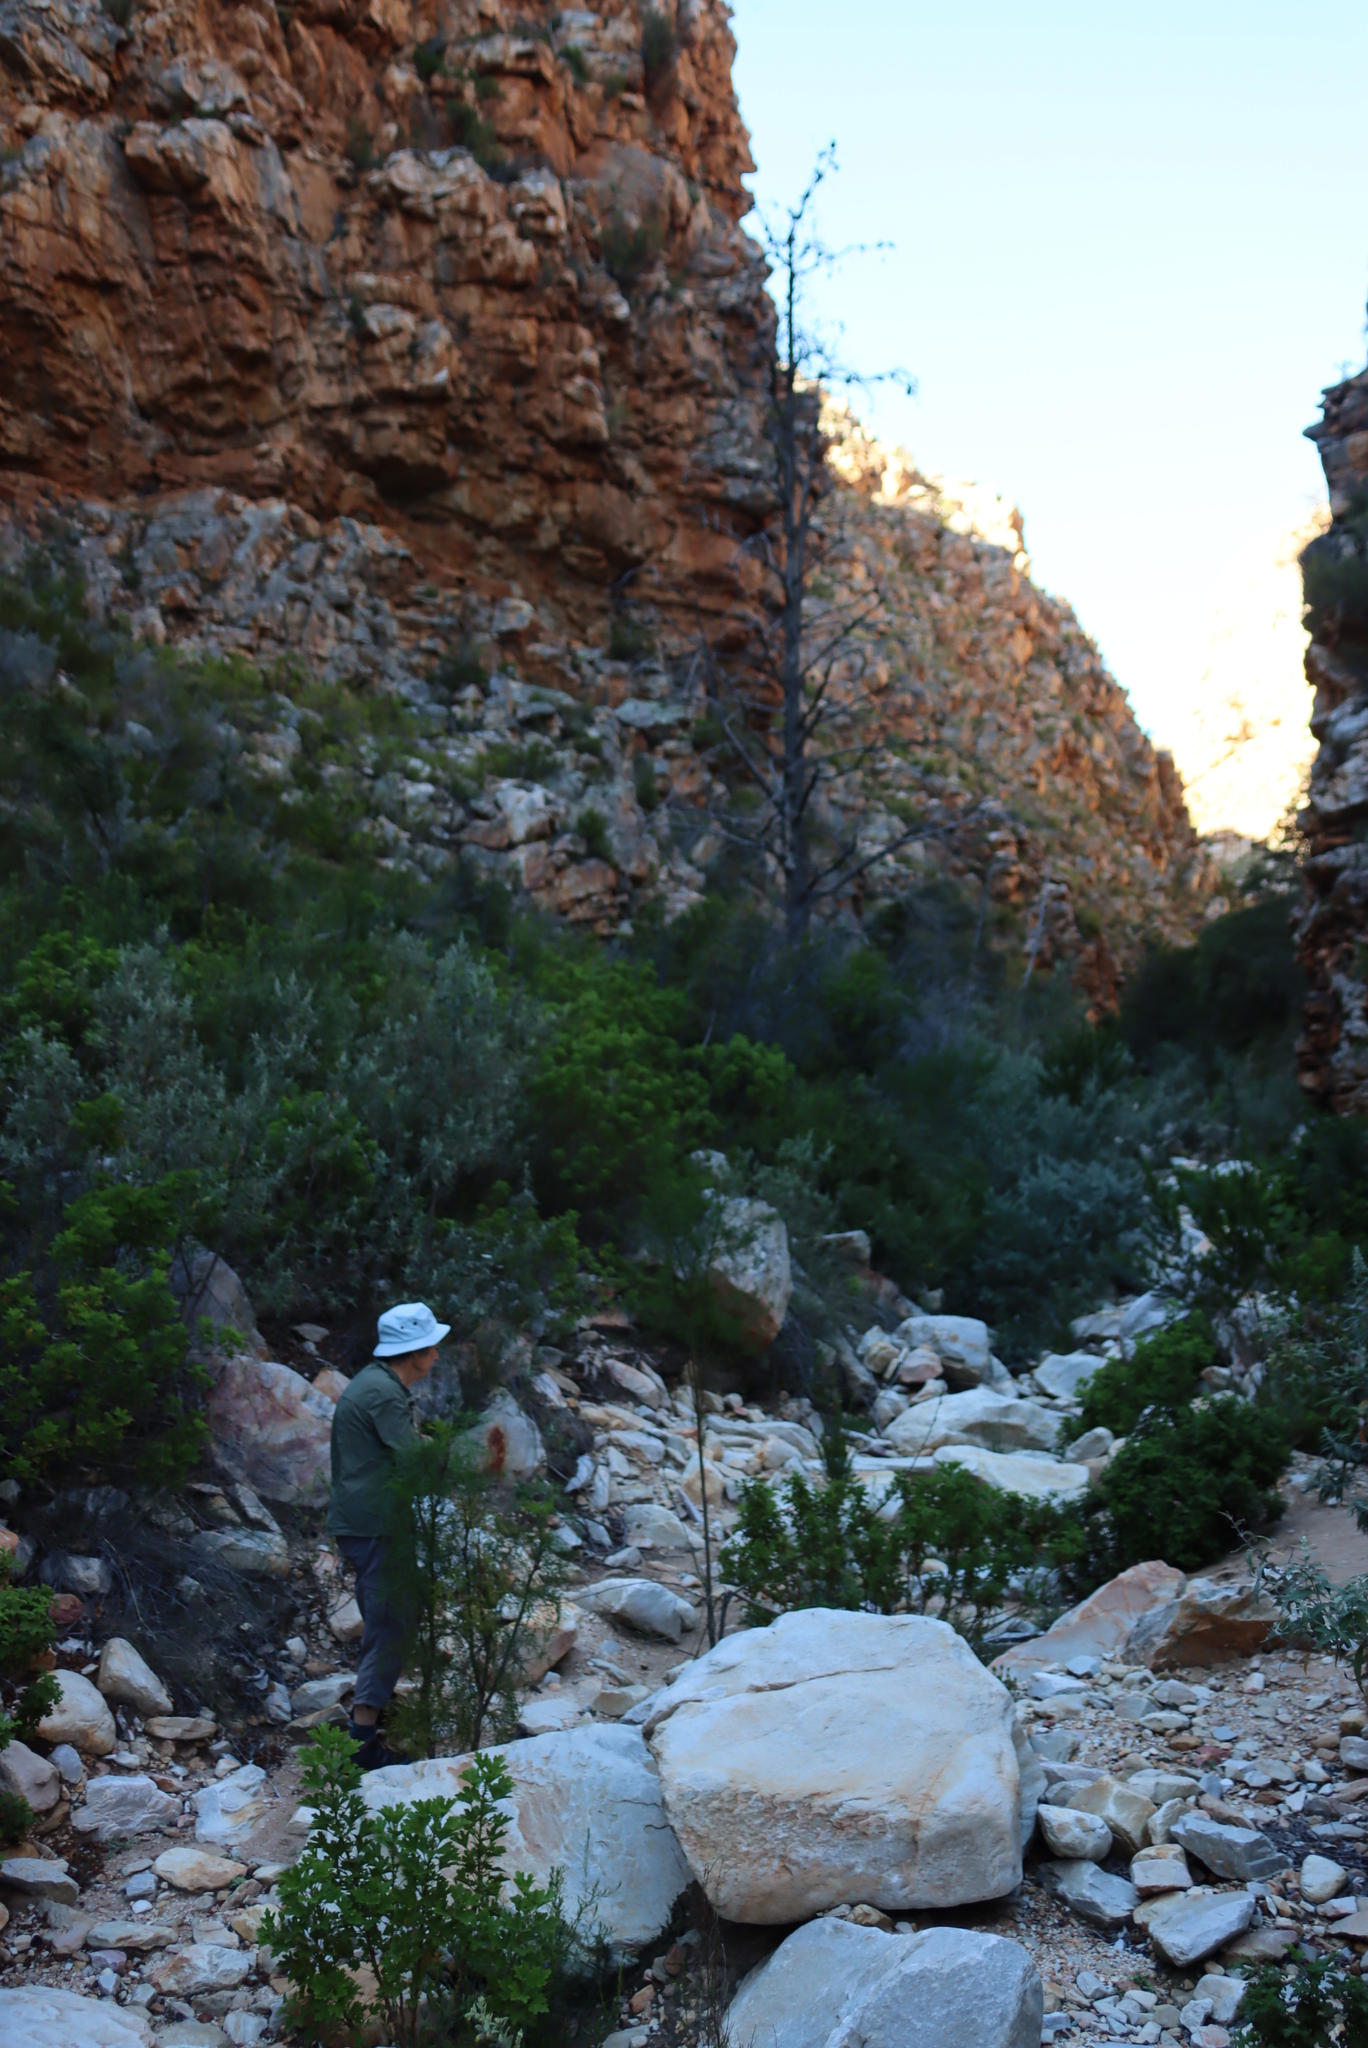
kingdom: Plantae
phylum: Tracheophyta
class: Pinopsida
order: Pinales
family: Cupressaceae
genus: Widdringtonia
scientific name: Widdringtonia schwarzii
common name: Baviaans cedar
